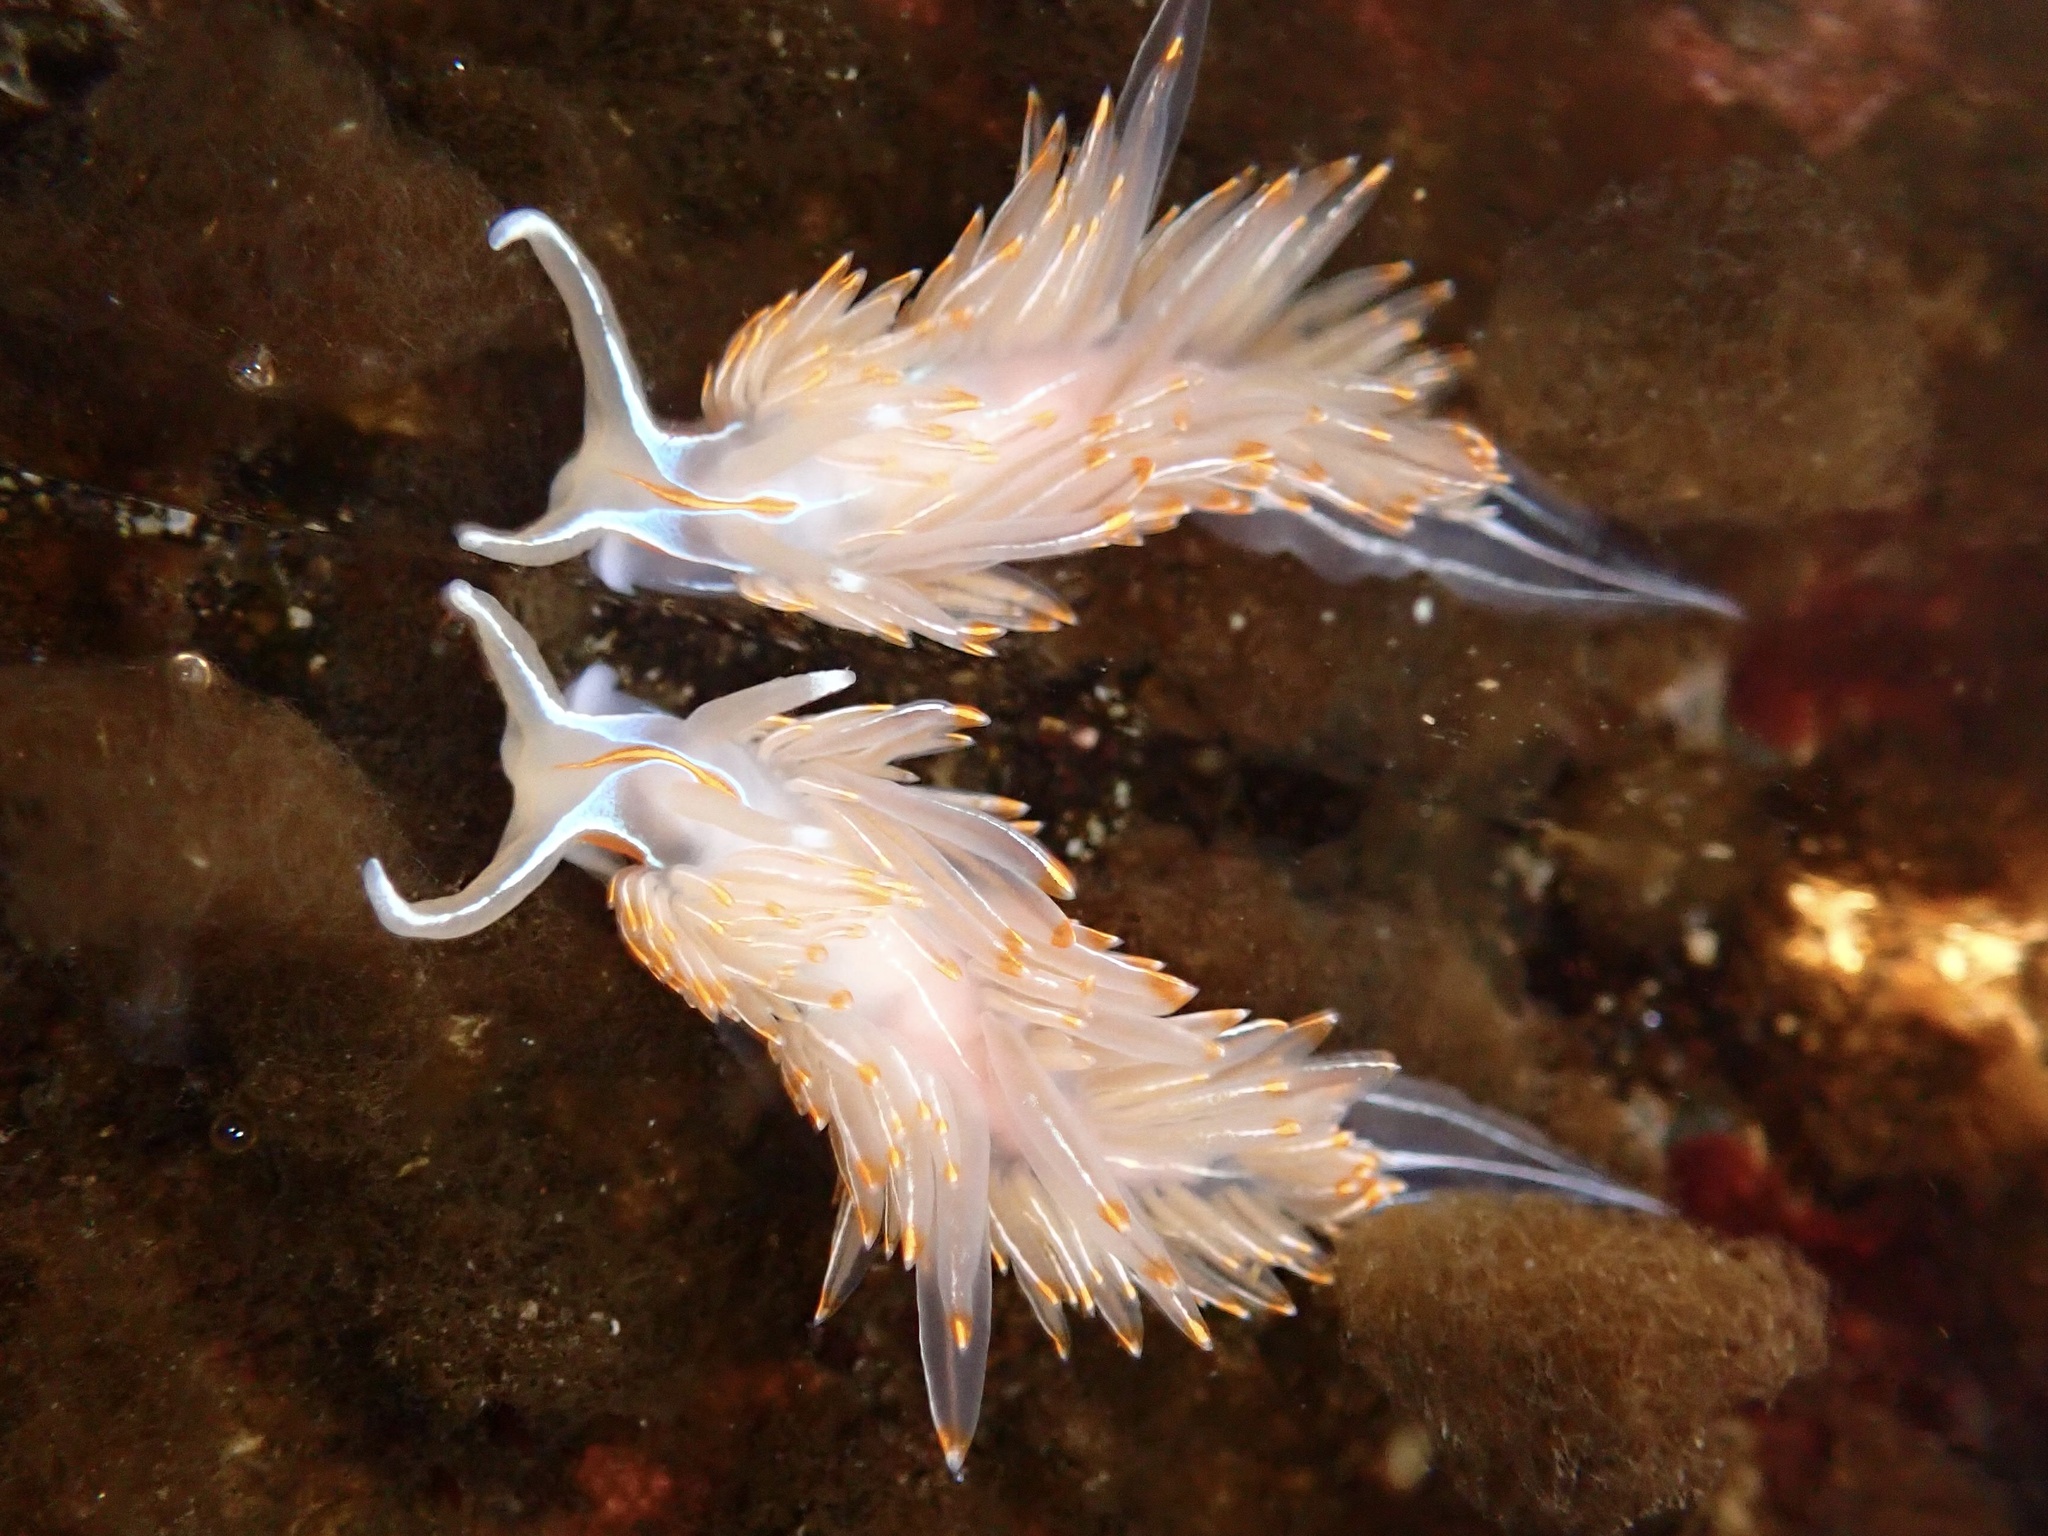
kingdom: Animalia
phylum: Mollusca
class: Gastropoda
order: Nudibranchia
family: Myrrhinidae
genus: Hermissenda
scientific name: Hermissenda crassicornis
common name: Hermissenda
